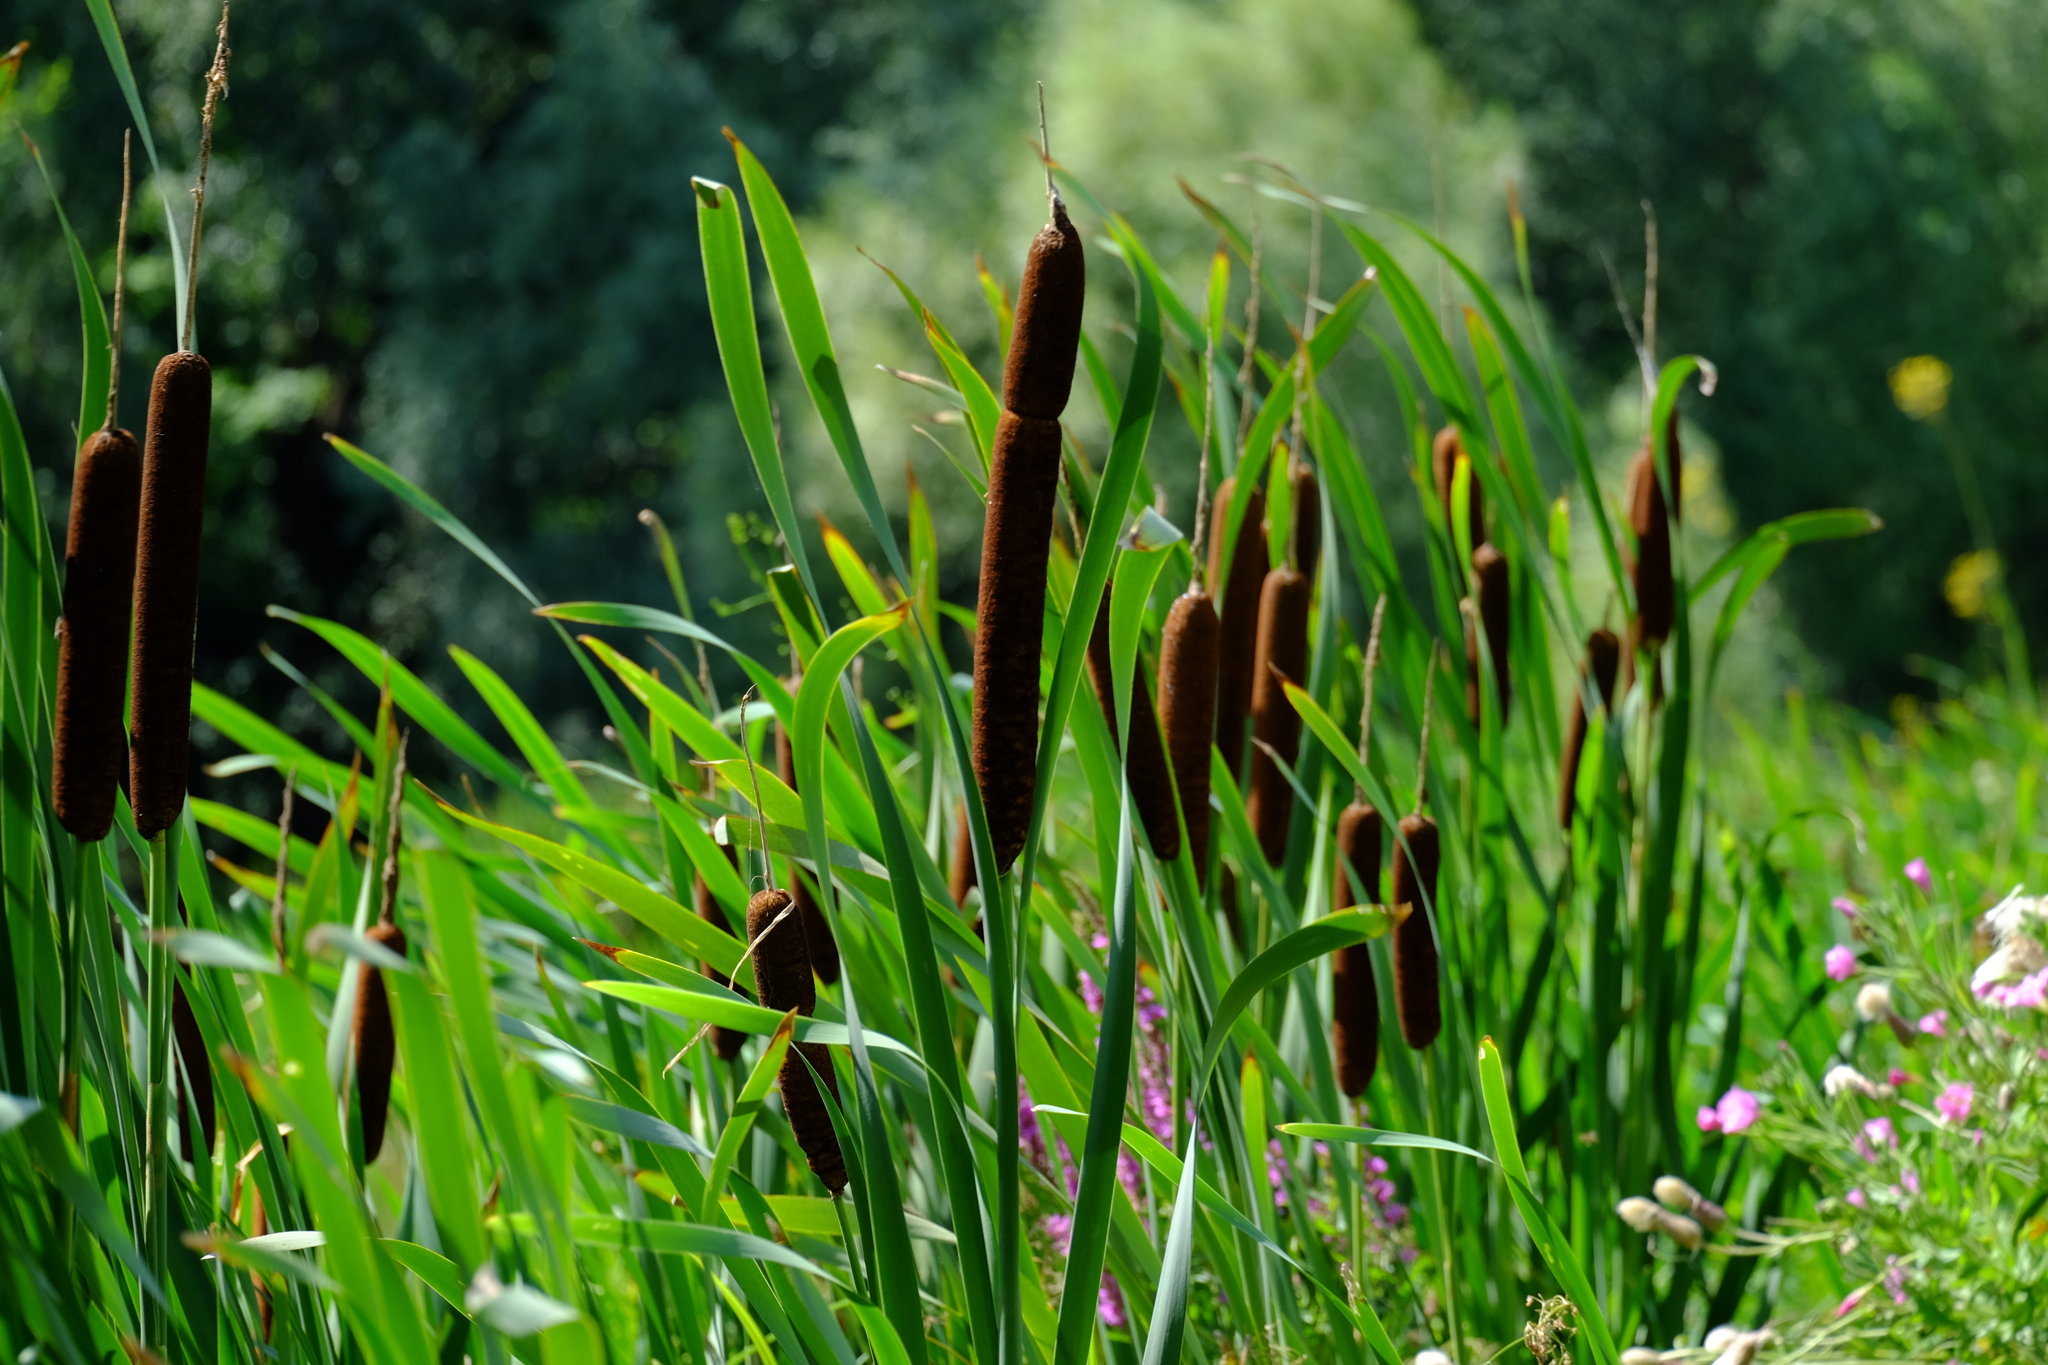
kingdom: Plantae
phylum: Tracheophyta
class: Liliopsida
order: Poales
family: Typhaceae
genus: Typha
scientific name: Typha latifolia
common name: Broadleaf cattail
